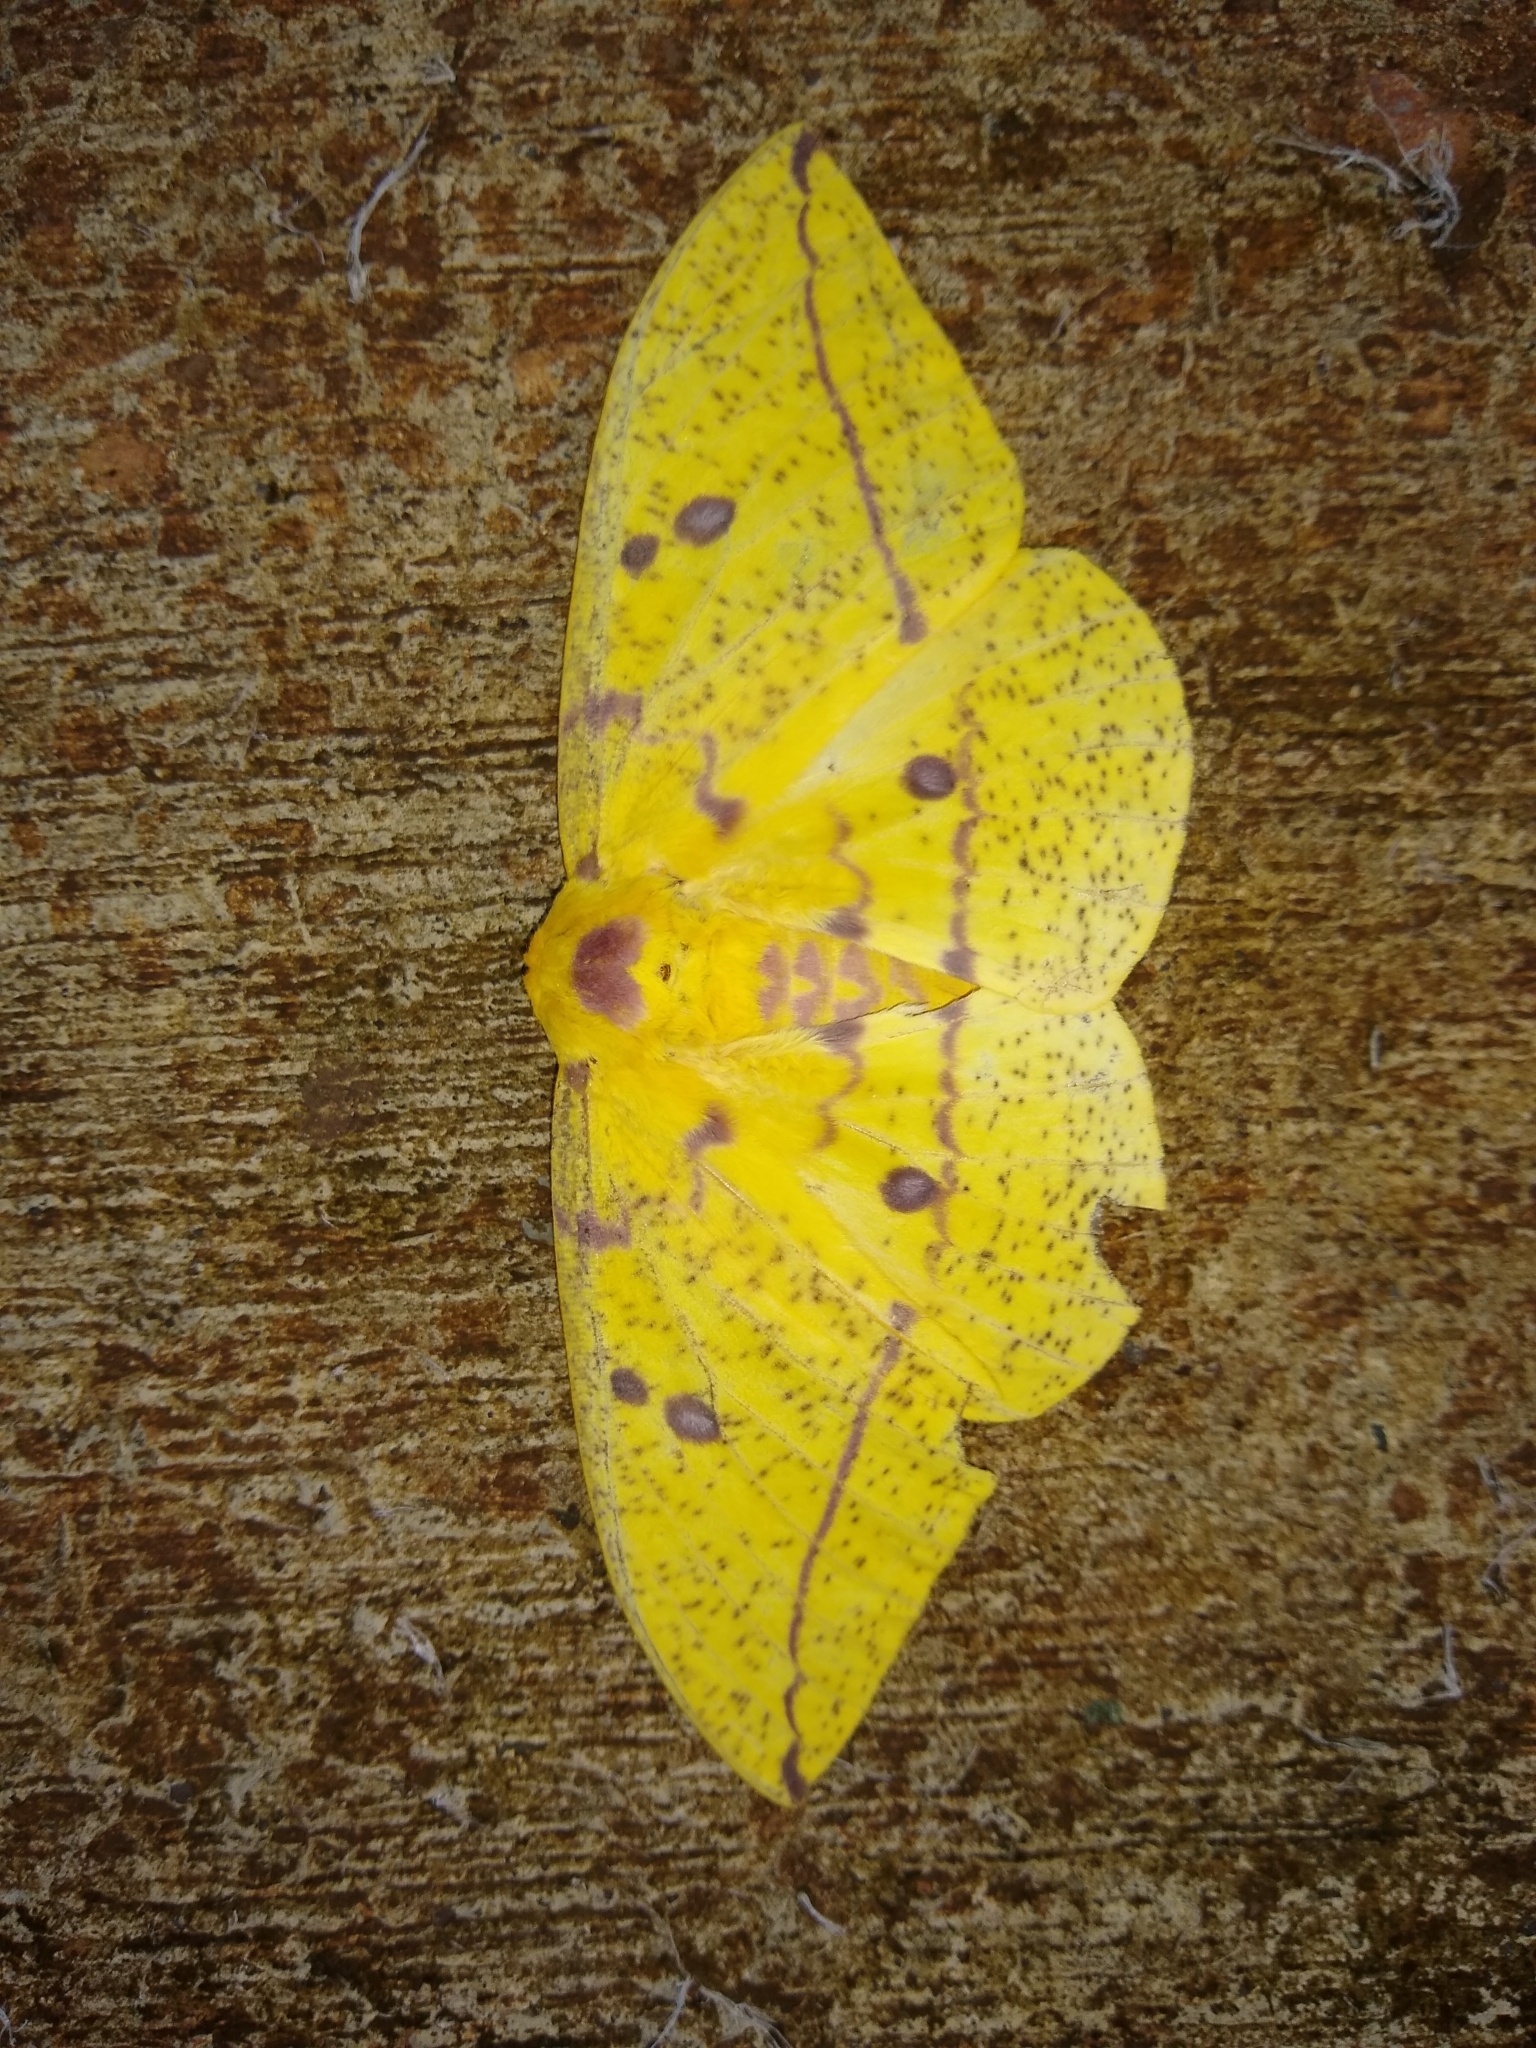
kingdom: Animalia
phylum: Arthropoda
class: Insecta
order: Lepidoptera
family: Saturniidae
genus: Eacles
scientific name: Eacles imperialis
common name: Imperial moth
